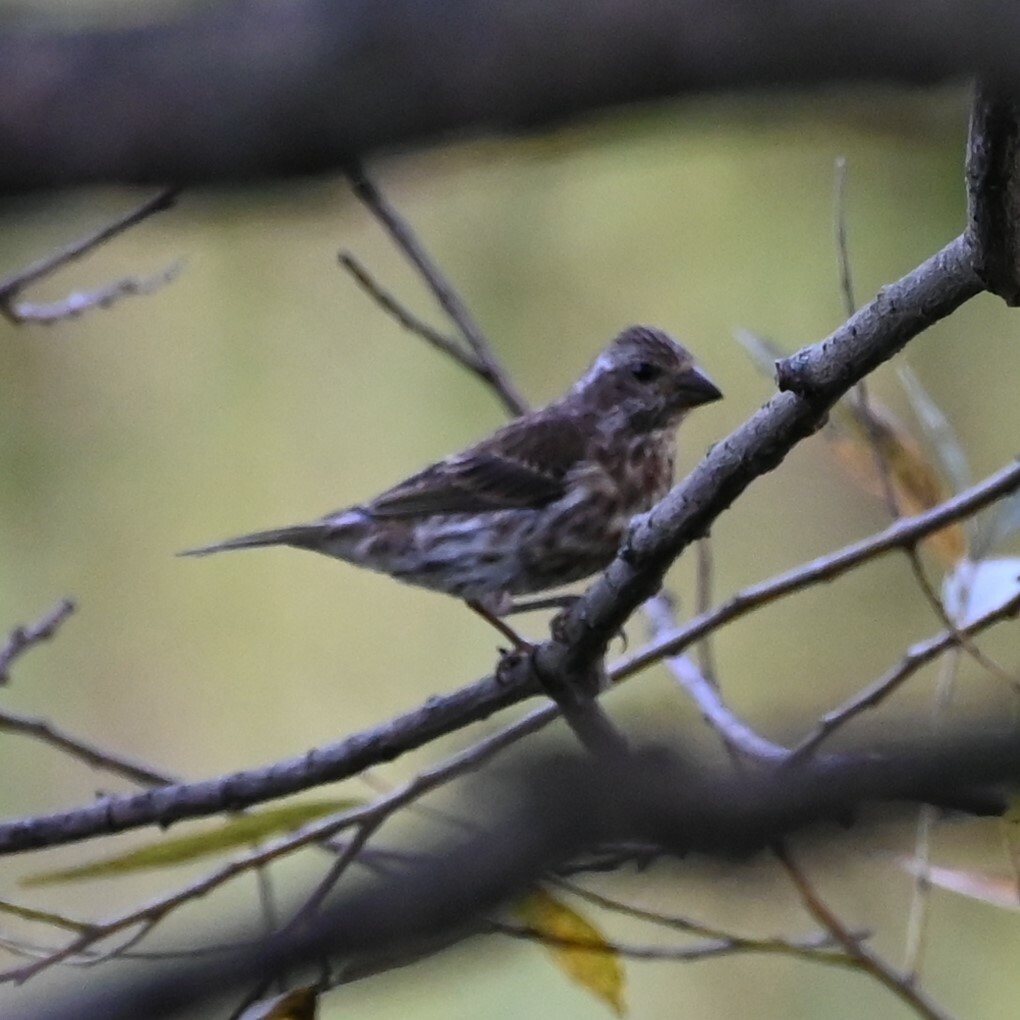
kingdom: Animalia
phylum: Chordata
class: Aves
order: Passeriformes
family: Fringillidae
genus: Haemorhous
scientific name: Haemorhous purpureus
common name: Purple finch
